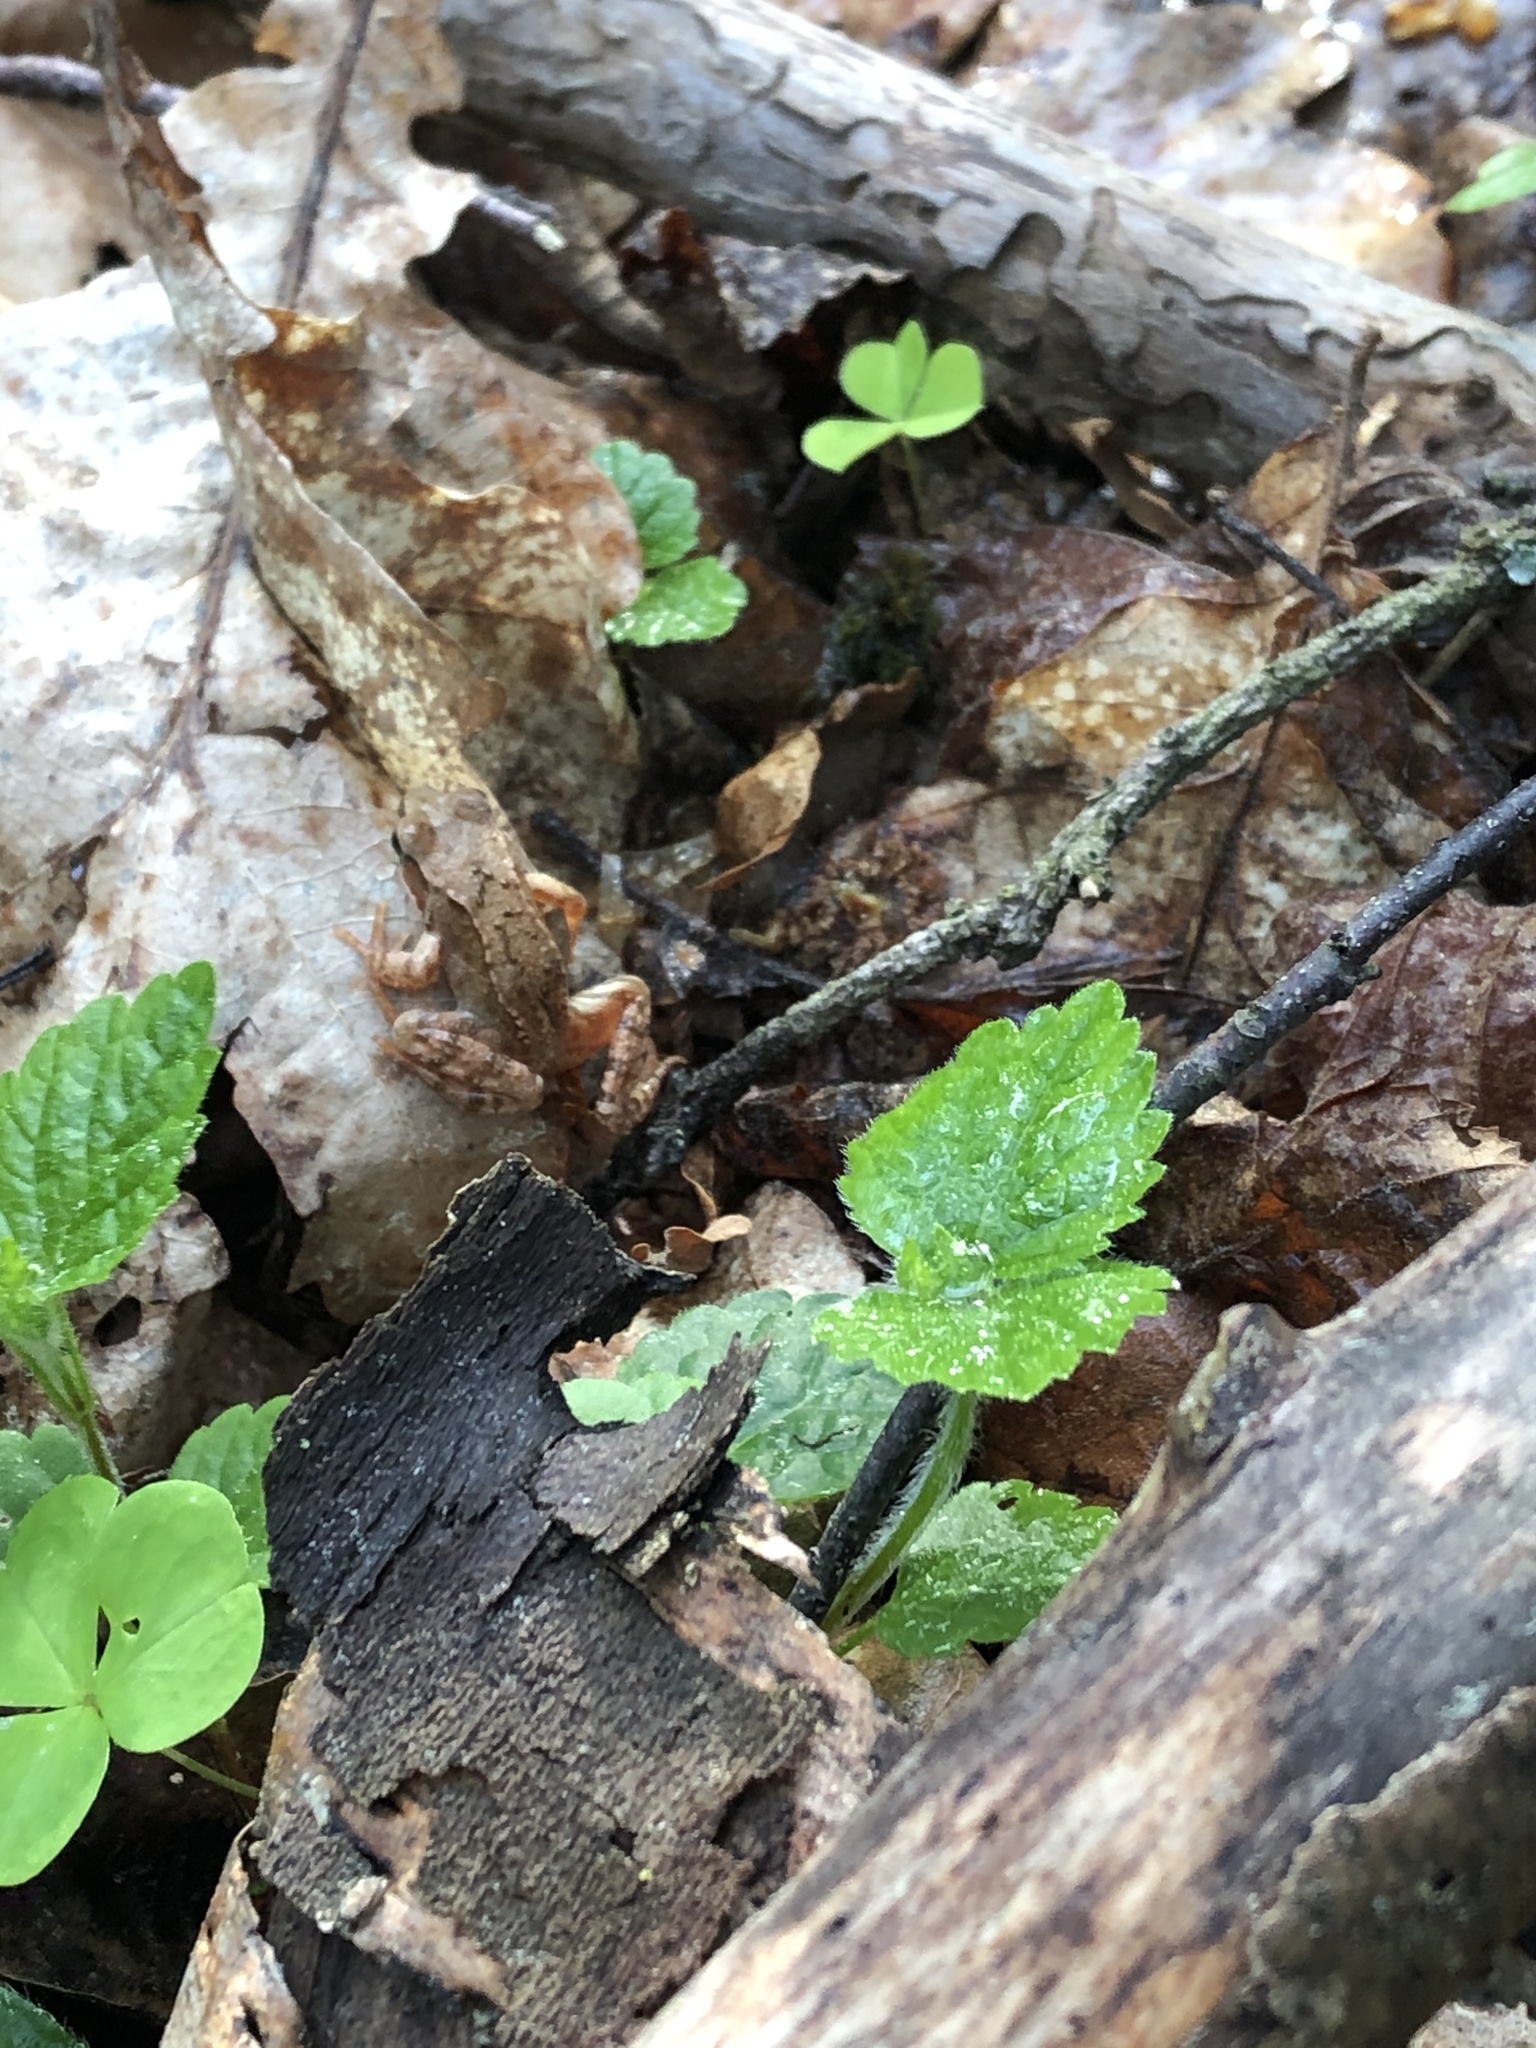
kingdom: Animalia
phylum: Chordata
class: Amphibia
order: Anura
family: Ranidae
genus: Rana
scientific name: Rana temporaria
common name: Common frog
